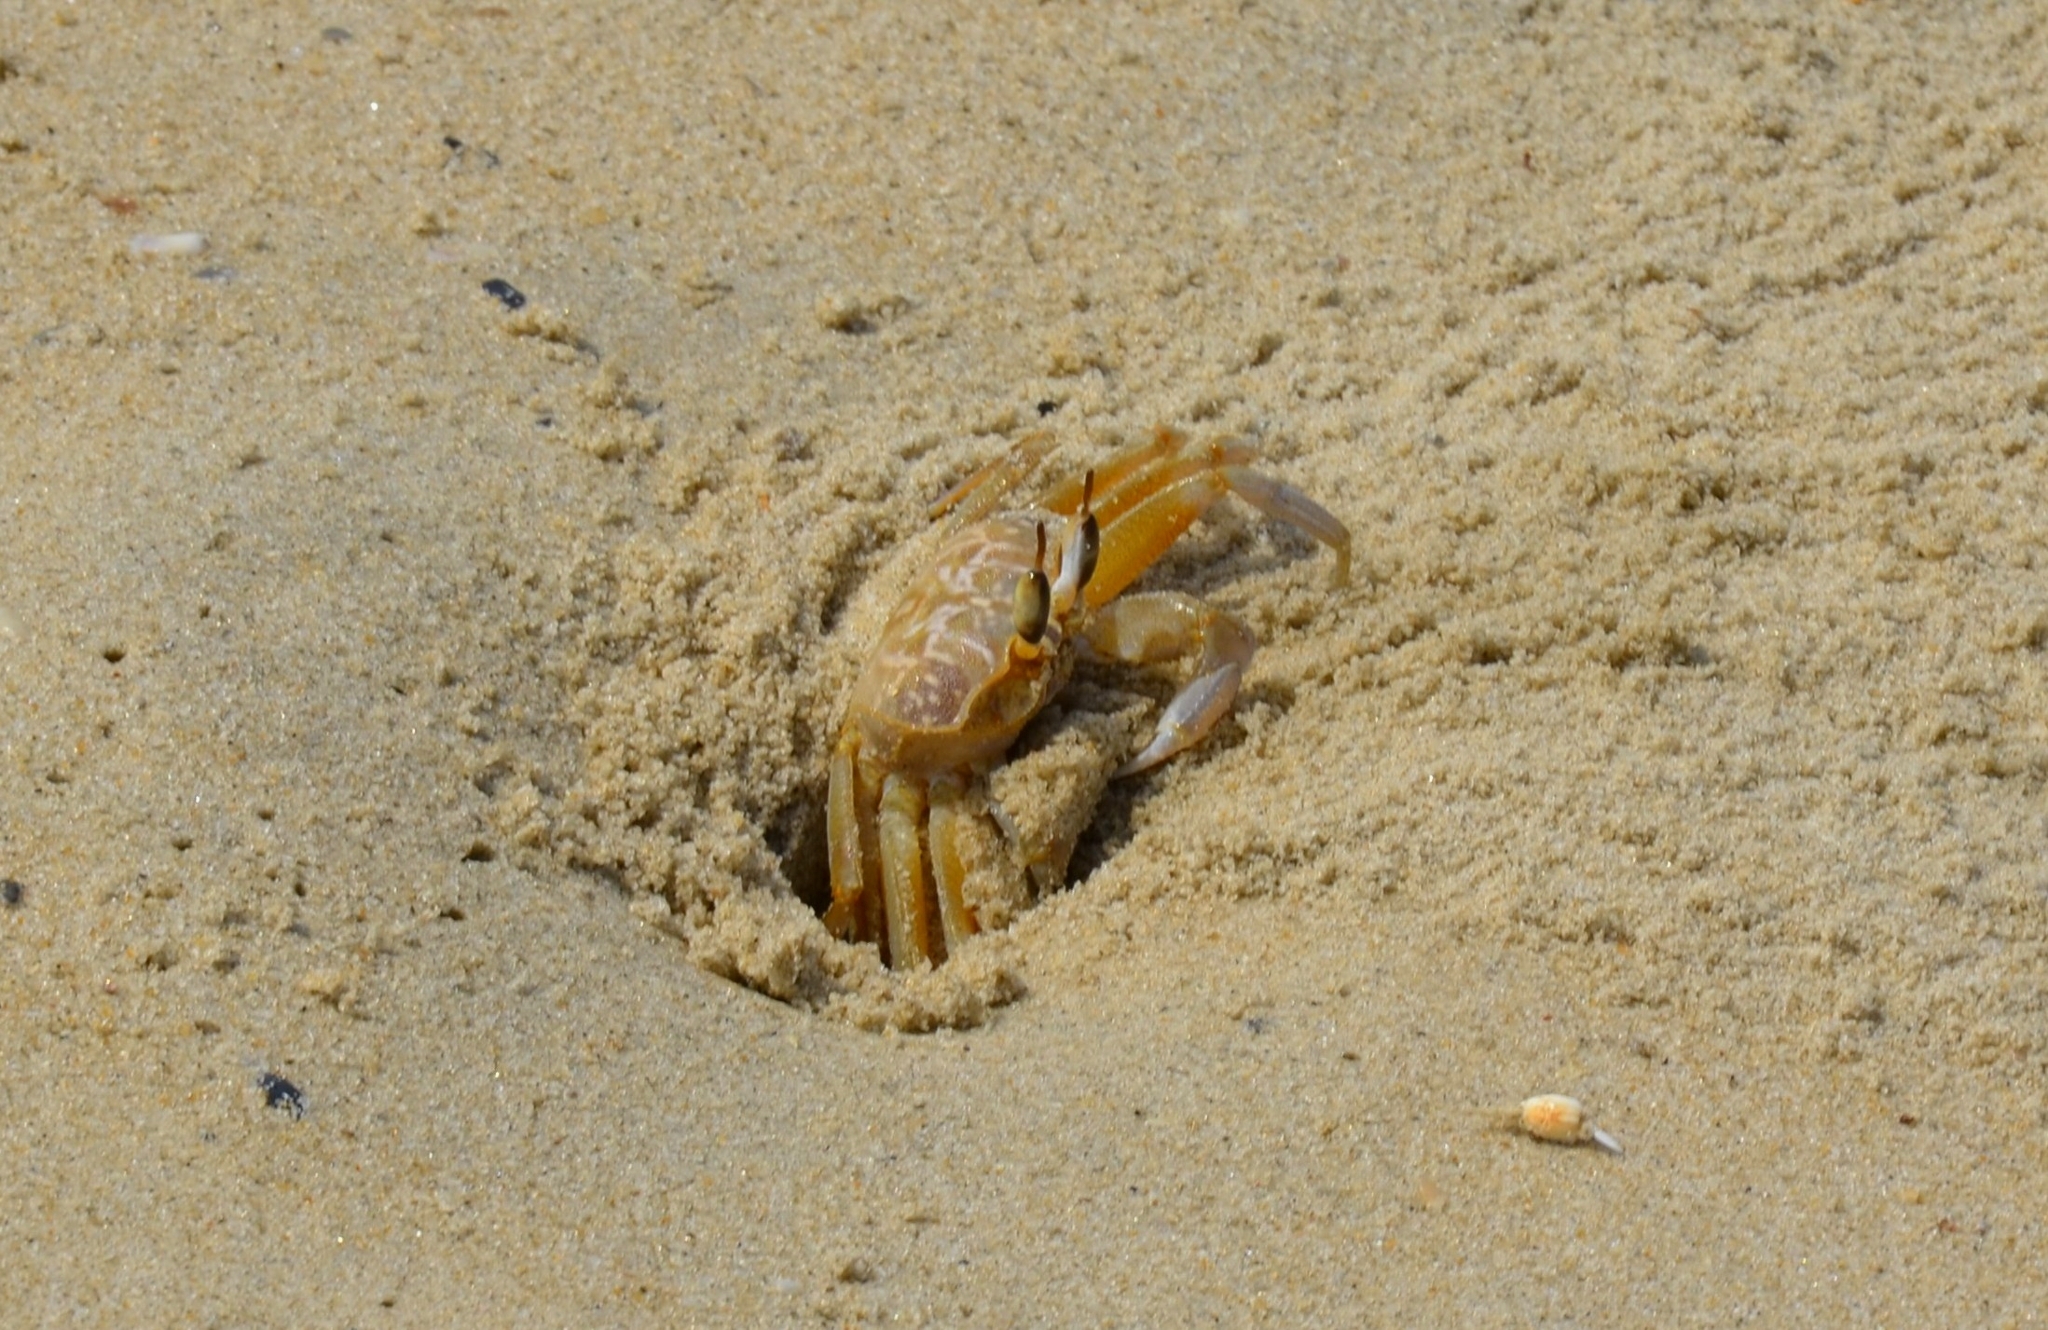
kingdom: Animalia
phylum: Arthropoda
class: Malacostraca
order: Decapoda
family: Ocypodidae
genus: Ocypode
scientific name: Ocypode brevicornis
